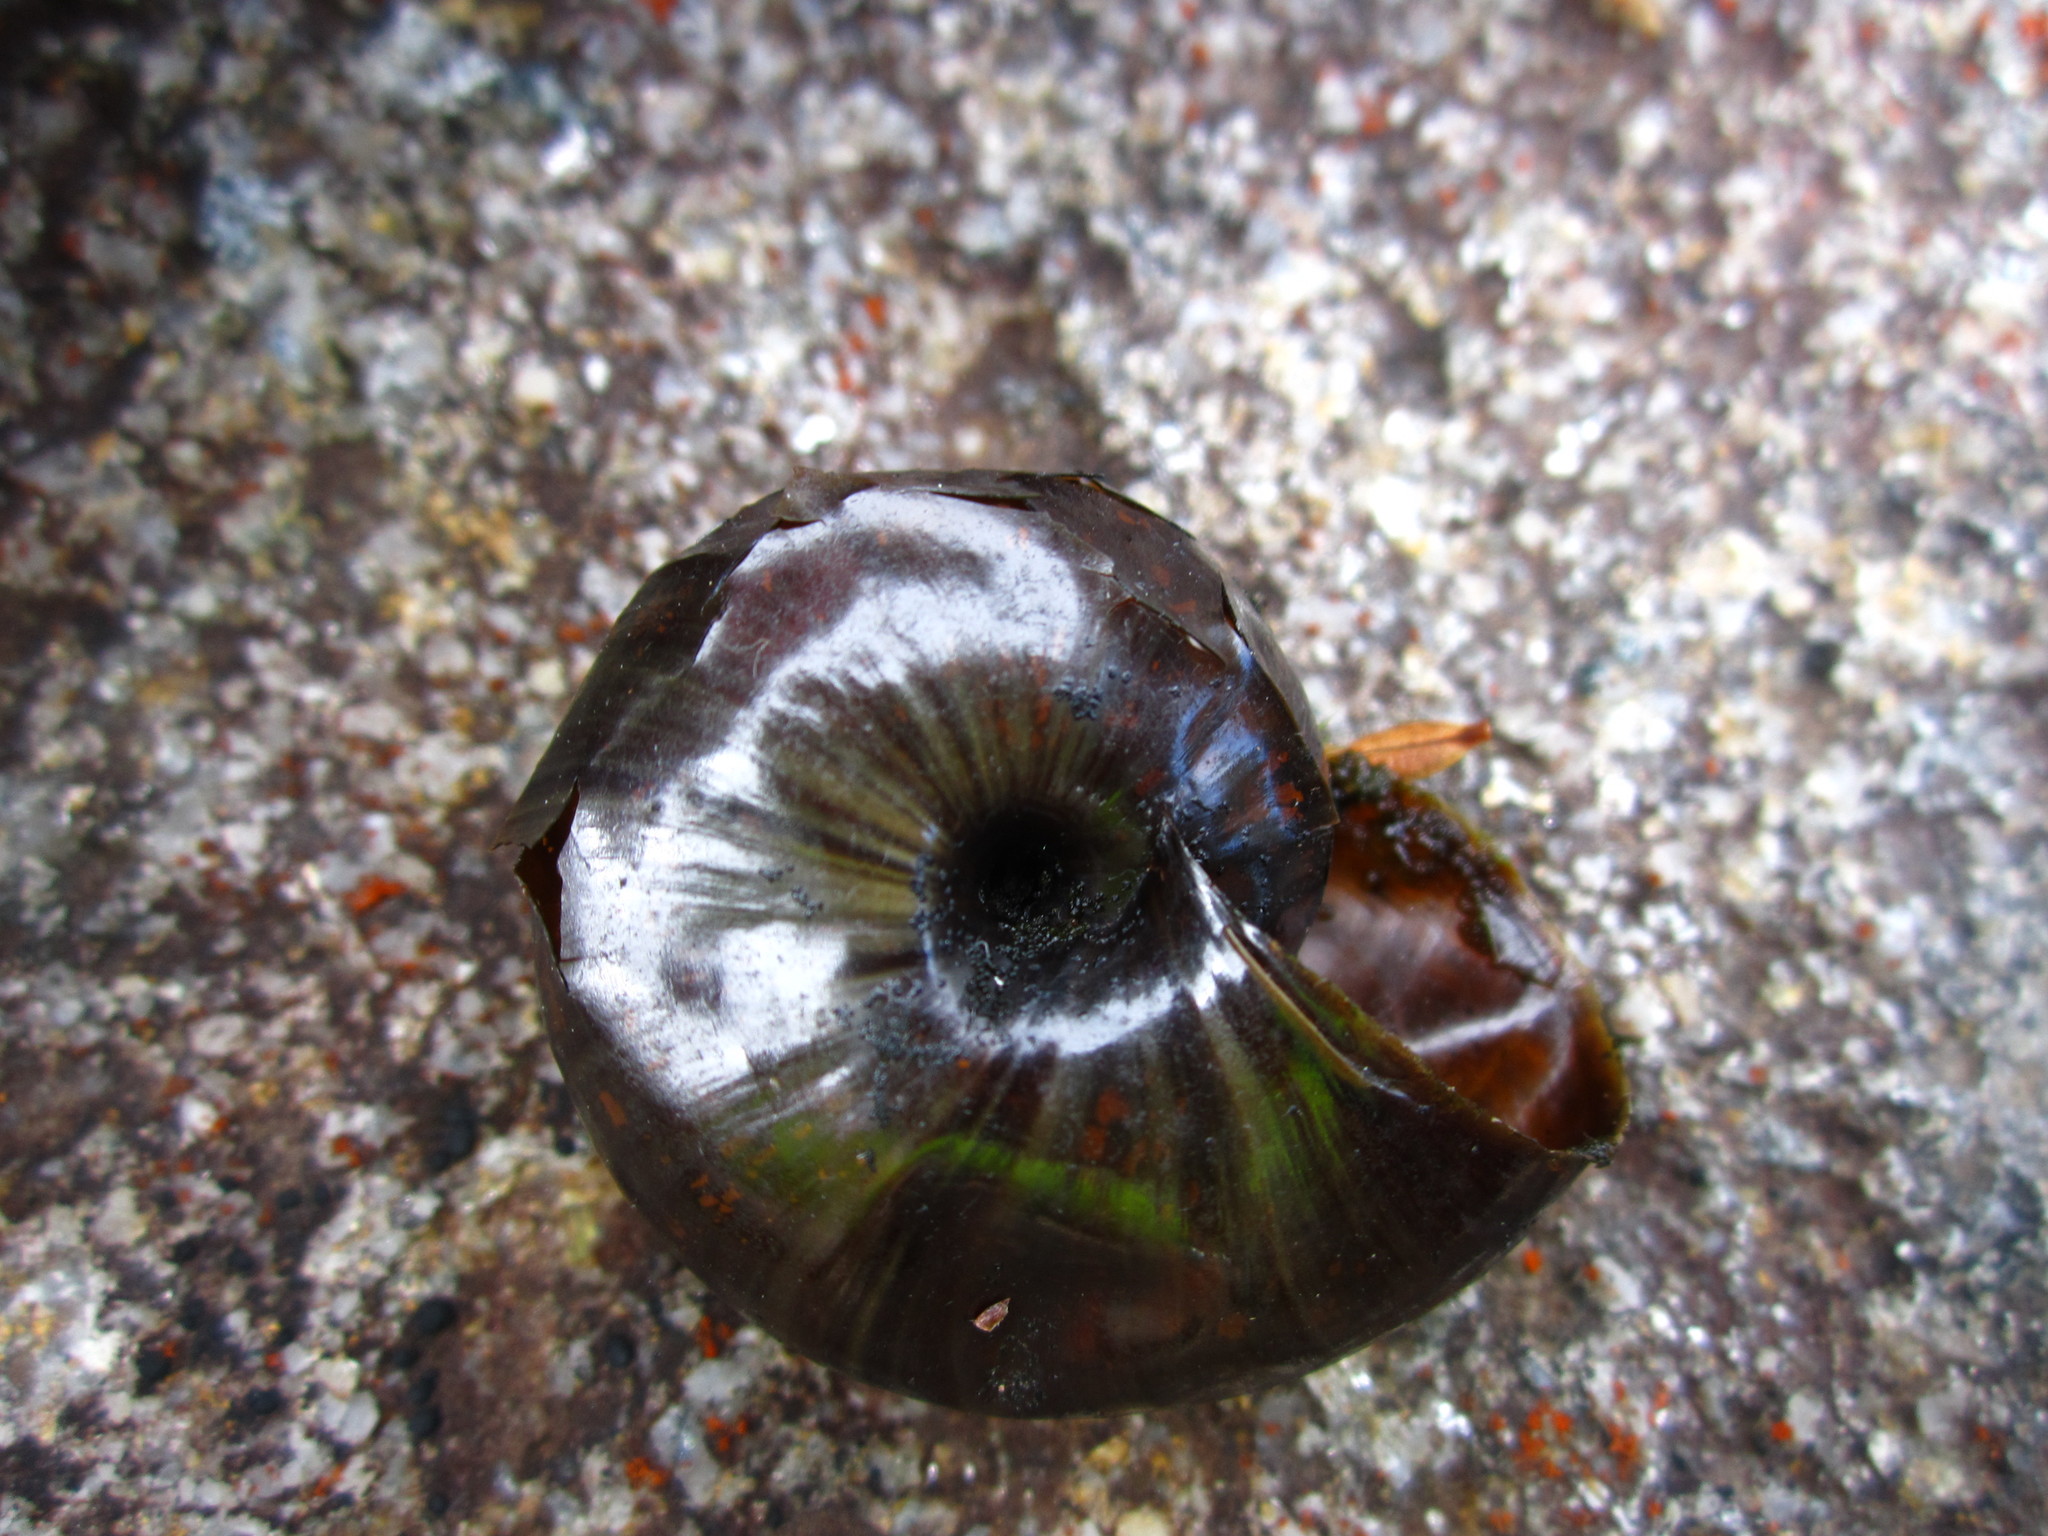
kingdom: Animalia
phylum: Mollusca
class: Gastropoda
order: Stylommatophora
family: Rhytididae
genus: Powelliphanta
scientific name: Powelliphanta patrickensis
